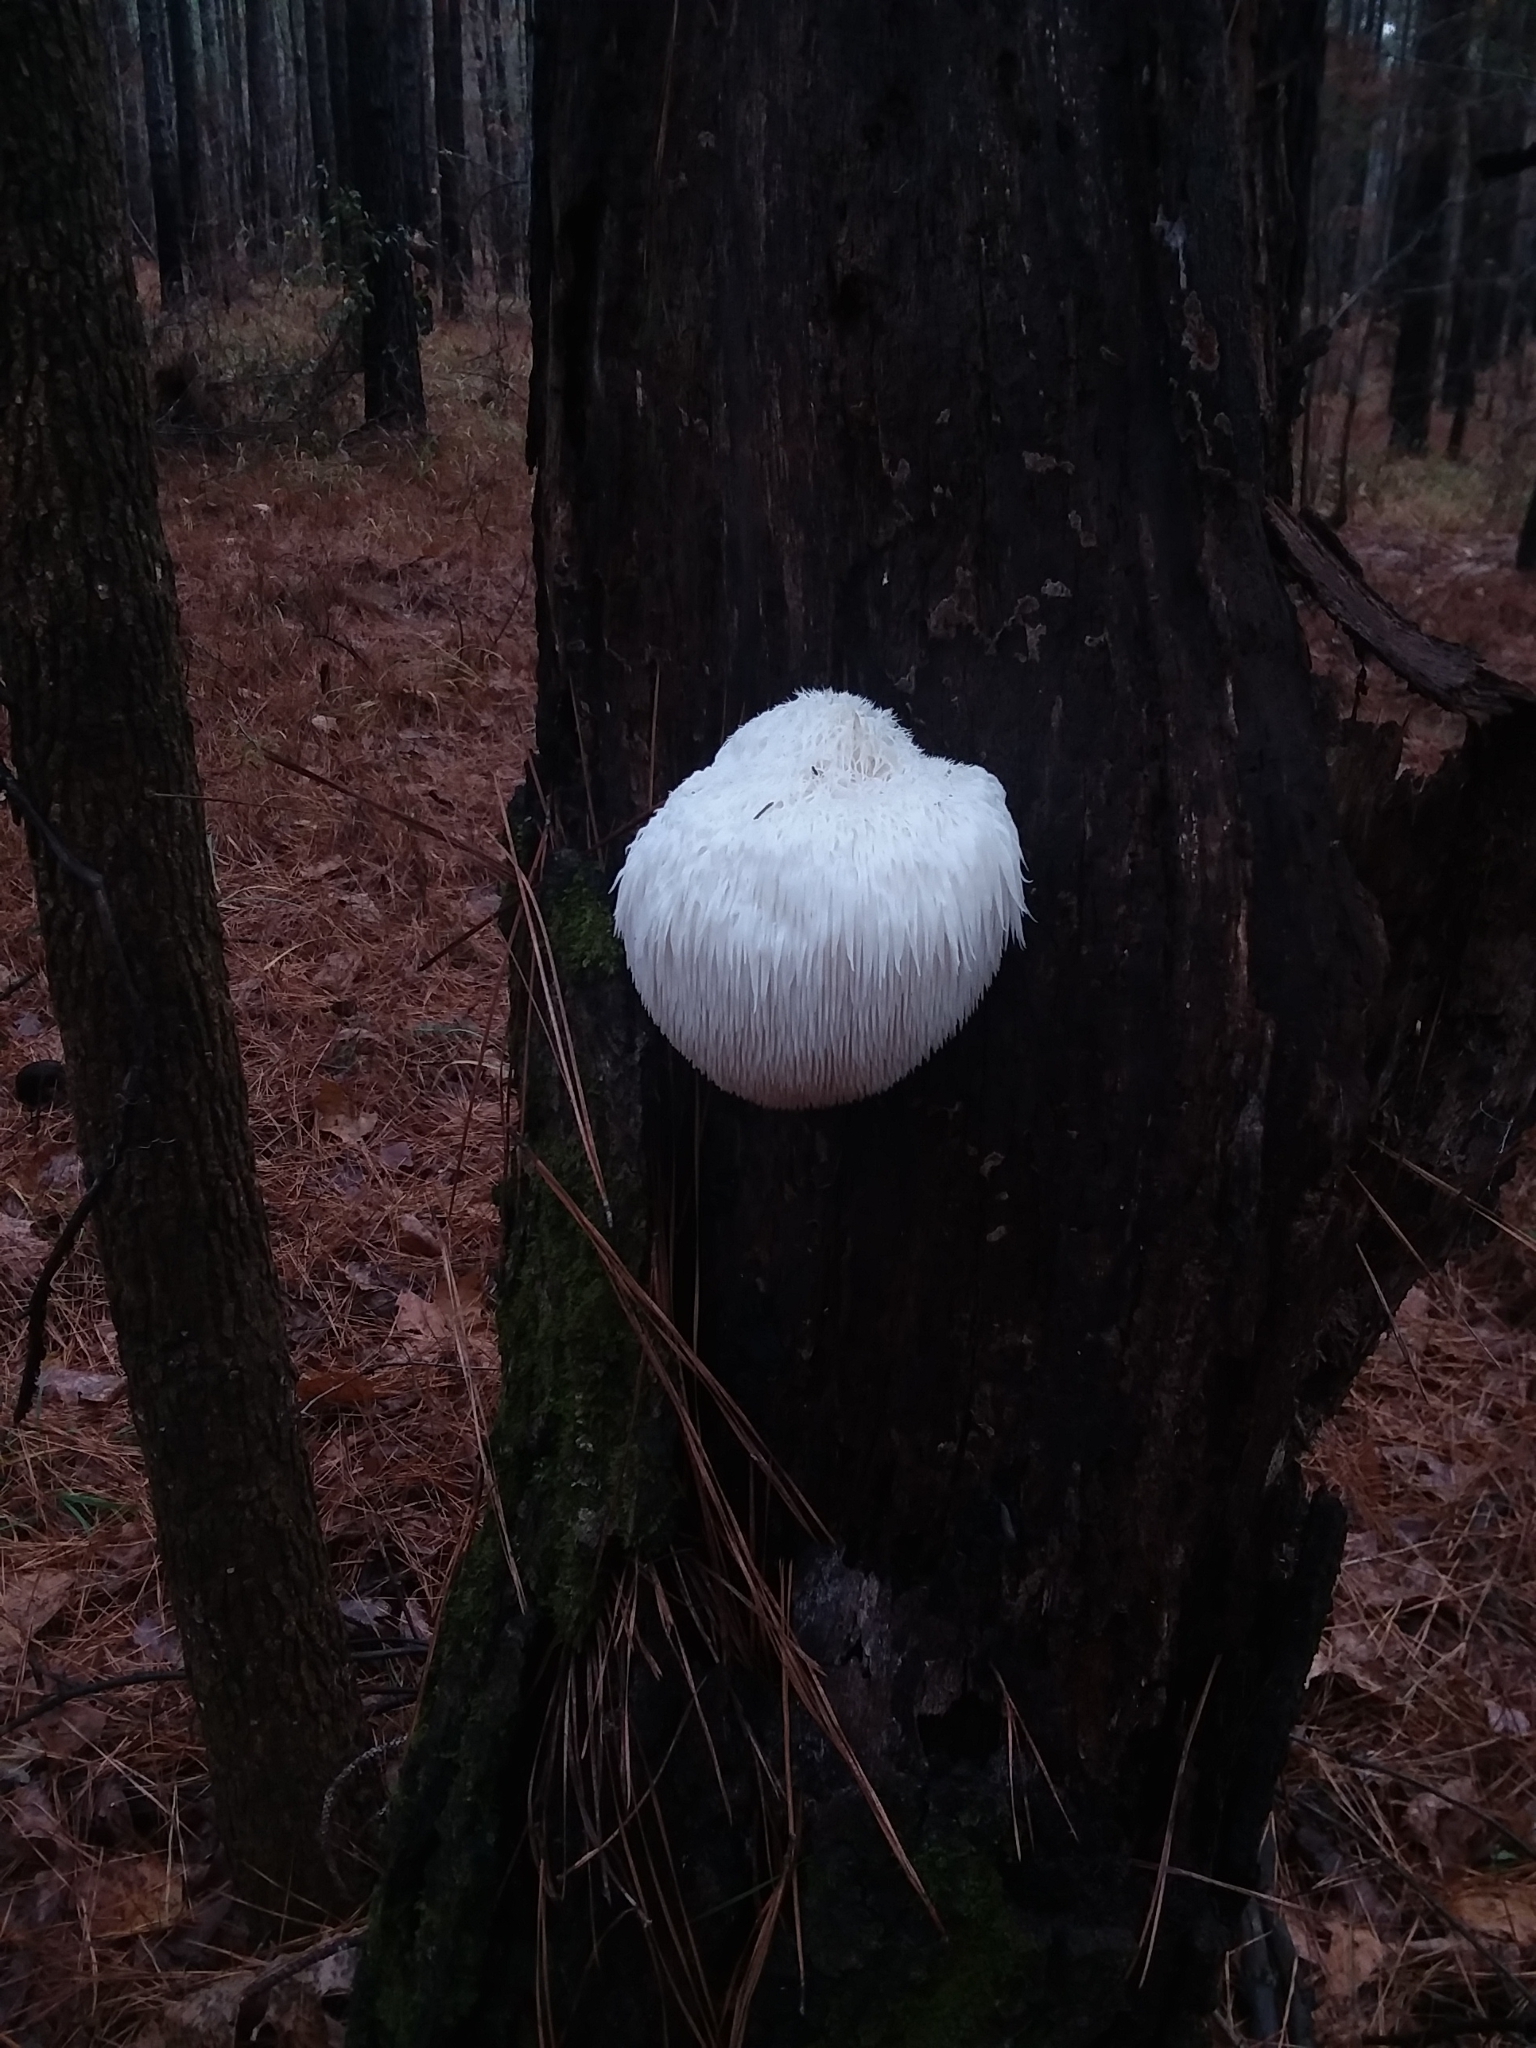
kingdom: Fungi
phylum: Basidiomycota
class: Agaricomycetes
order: Russulales
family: Hericiaceae
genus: Hericium
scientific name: Hericium erinaceus
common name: Bearded tooth
